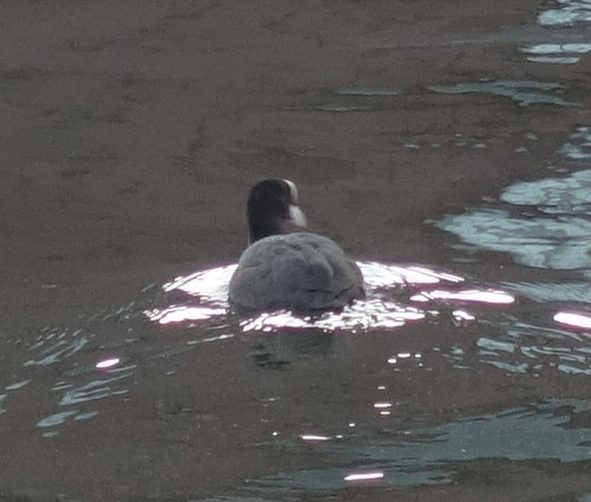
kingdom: Animalia
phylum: Chordata
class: Aves
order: Gruiformes
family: Rallidae
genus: Fulica
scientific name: Fulica atra
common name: Eurasian coot
